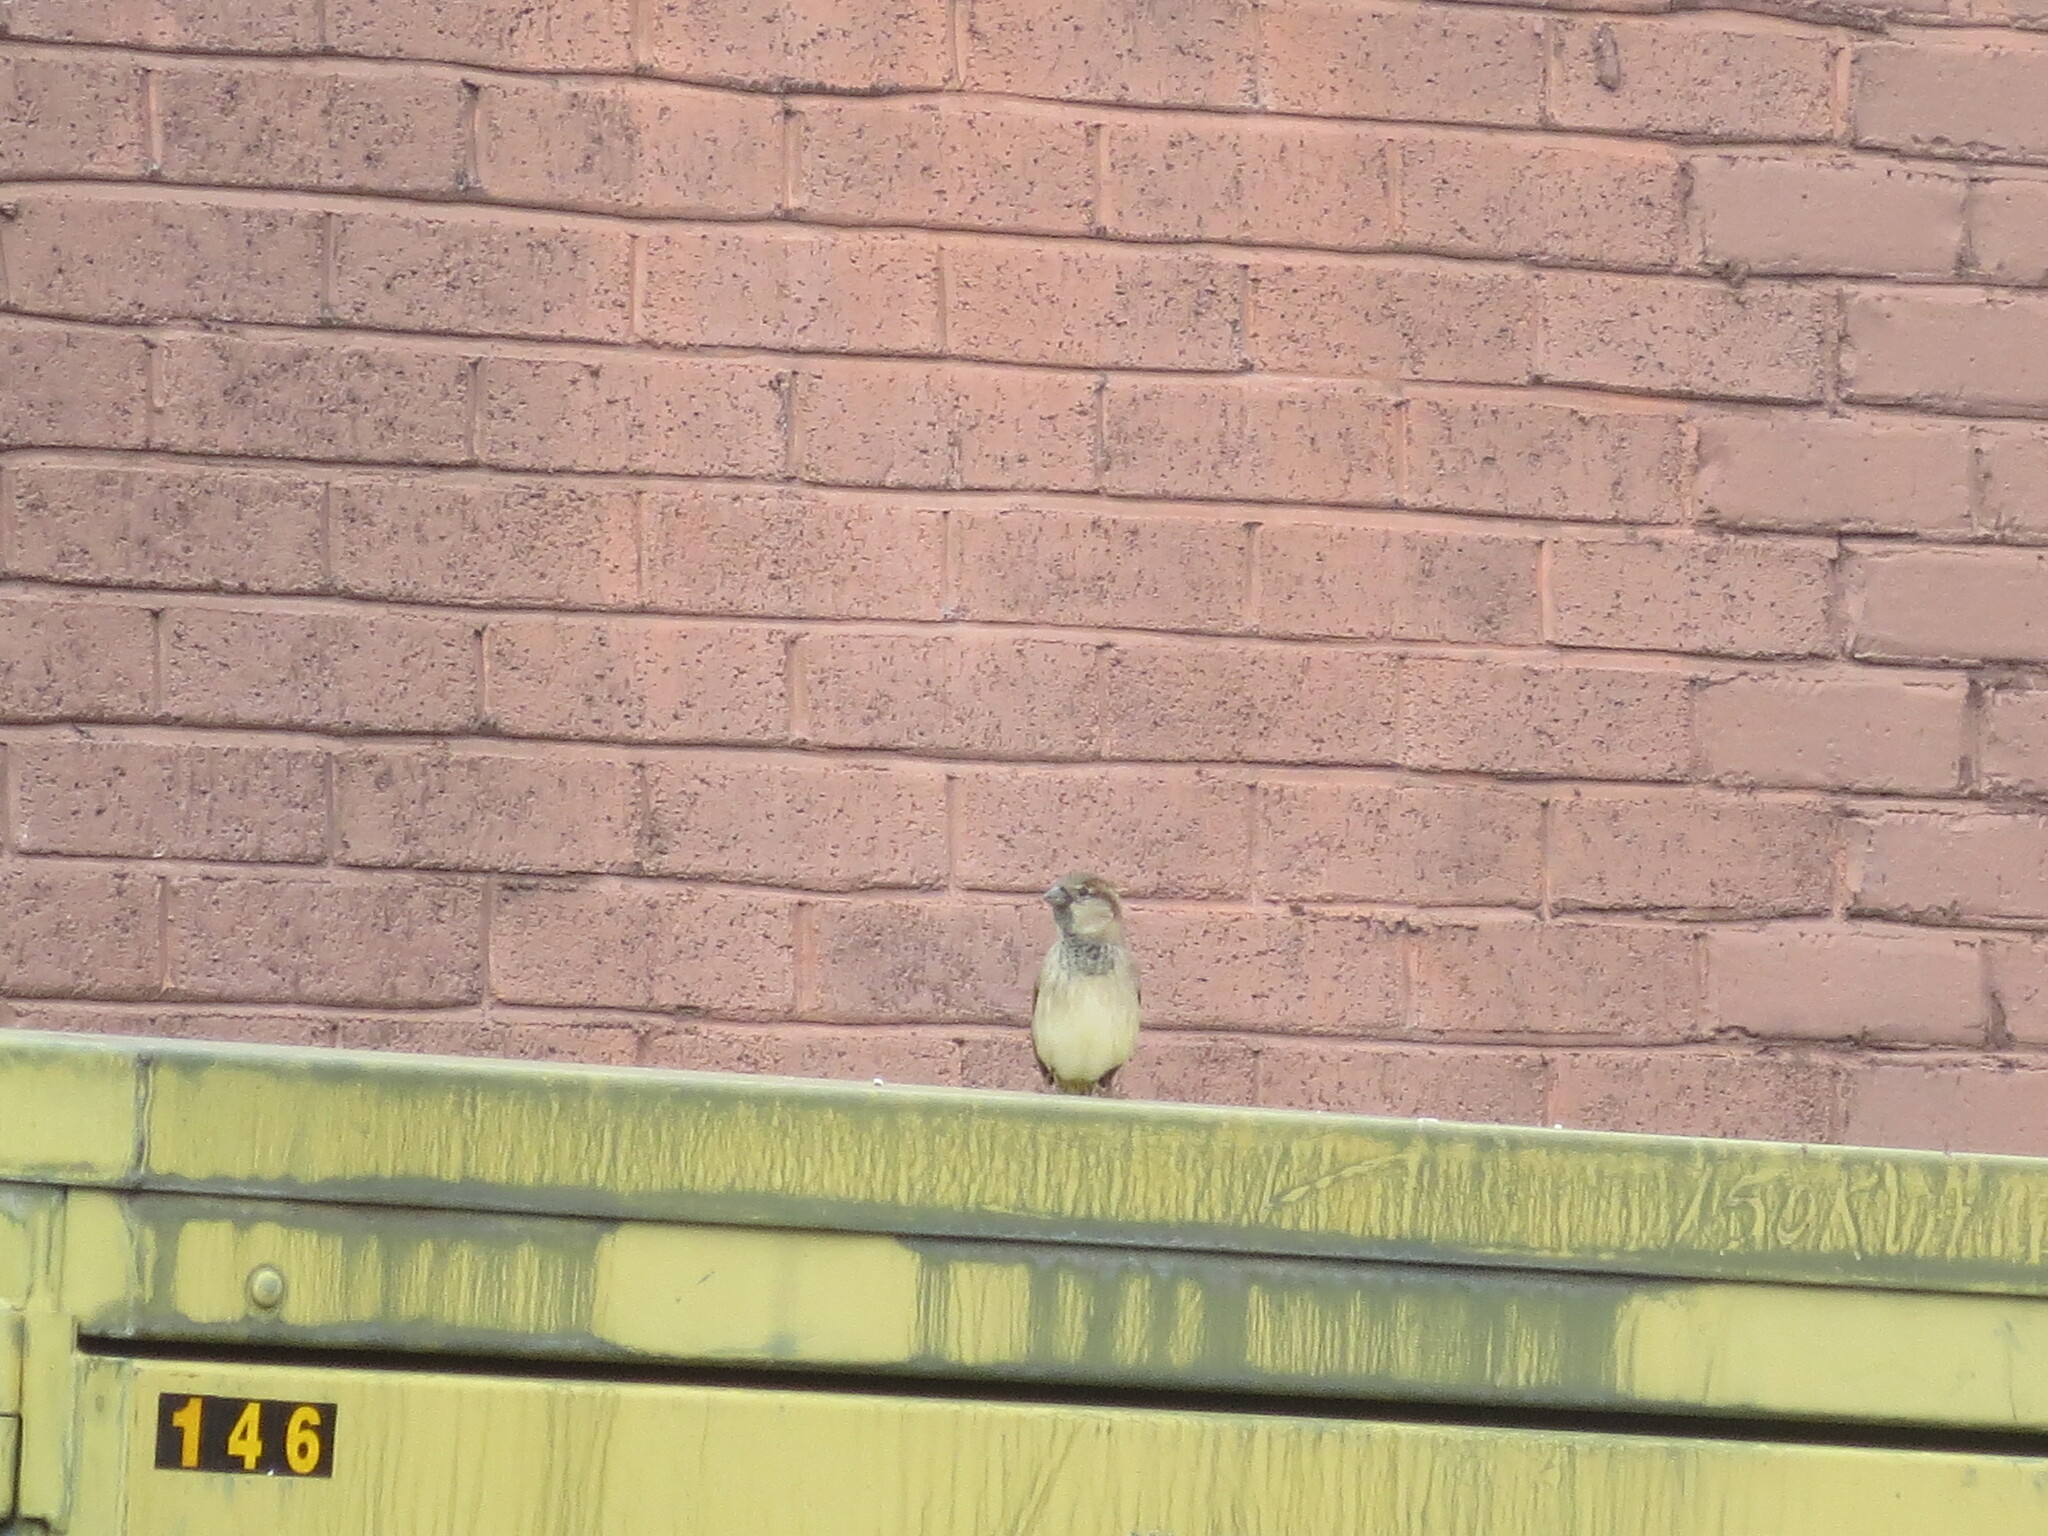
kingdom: Animalia
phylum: Chordata
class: Aves
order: Passeriformes
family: Passeridae
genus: Passer
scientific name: Passer domesticus
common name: House sparrow
